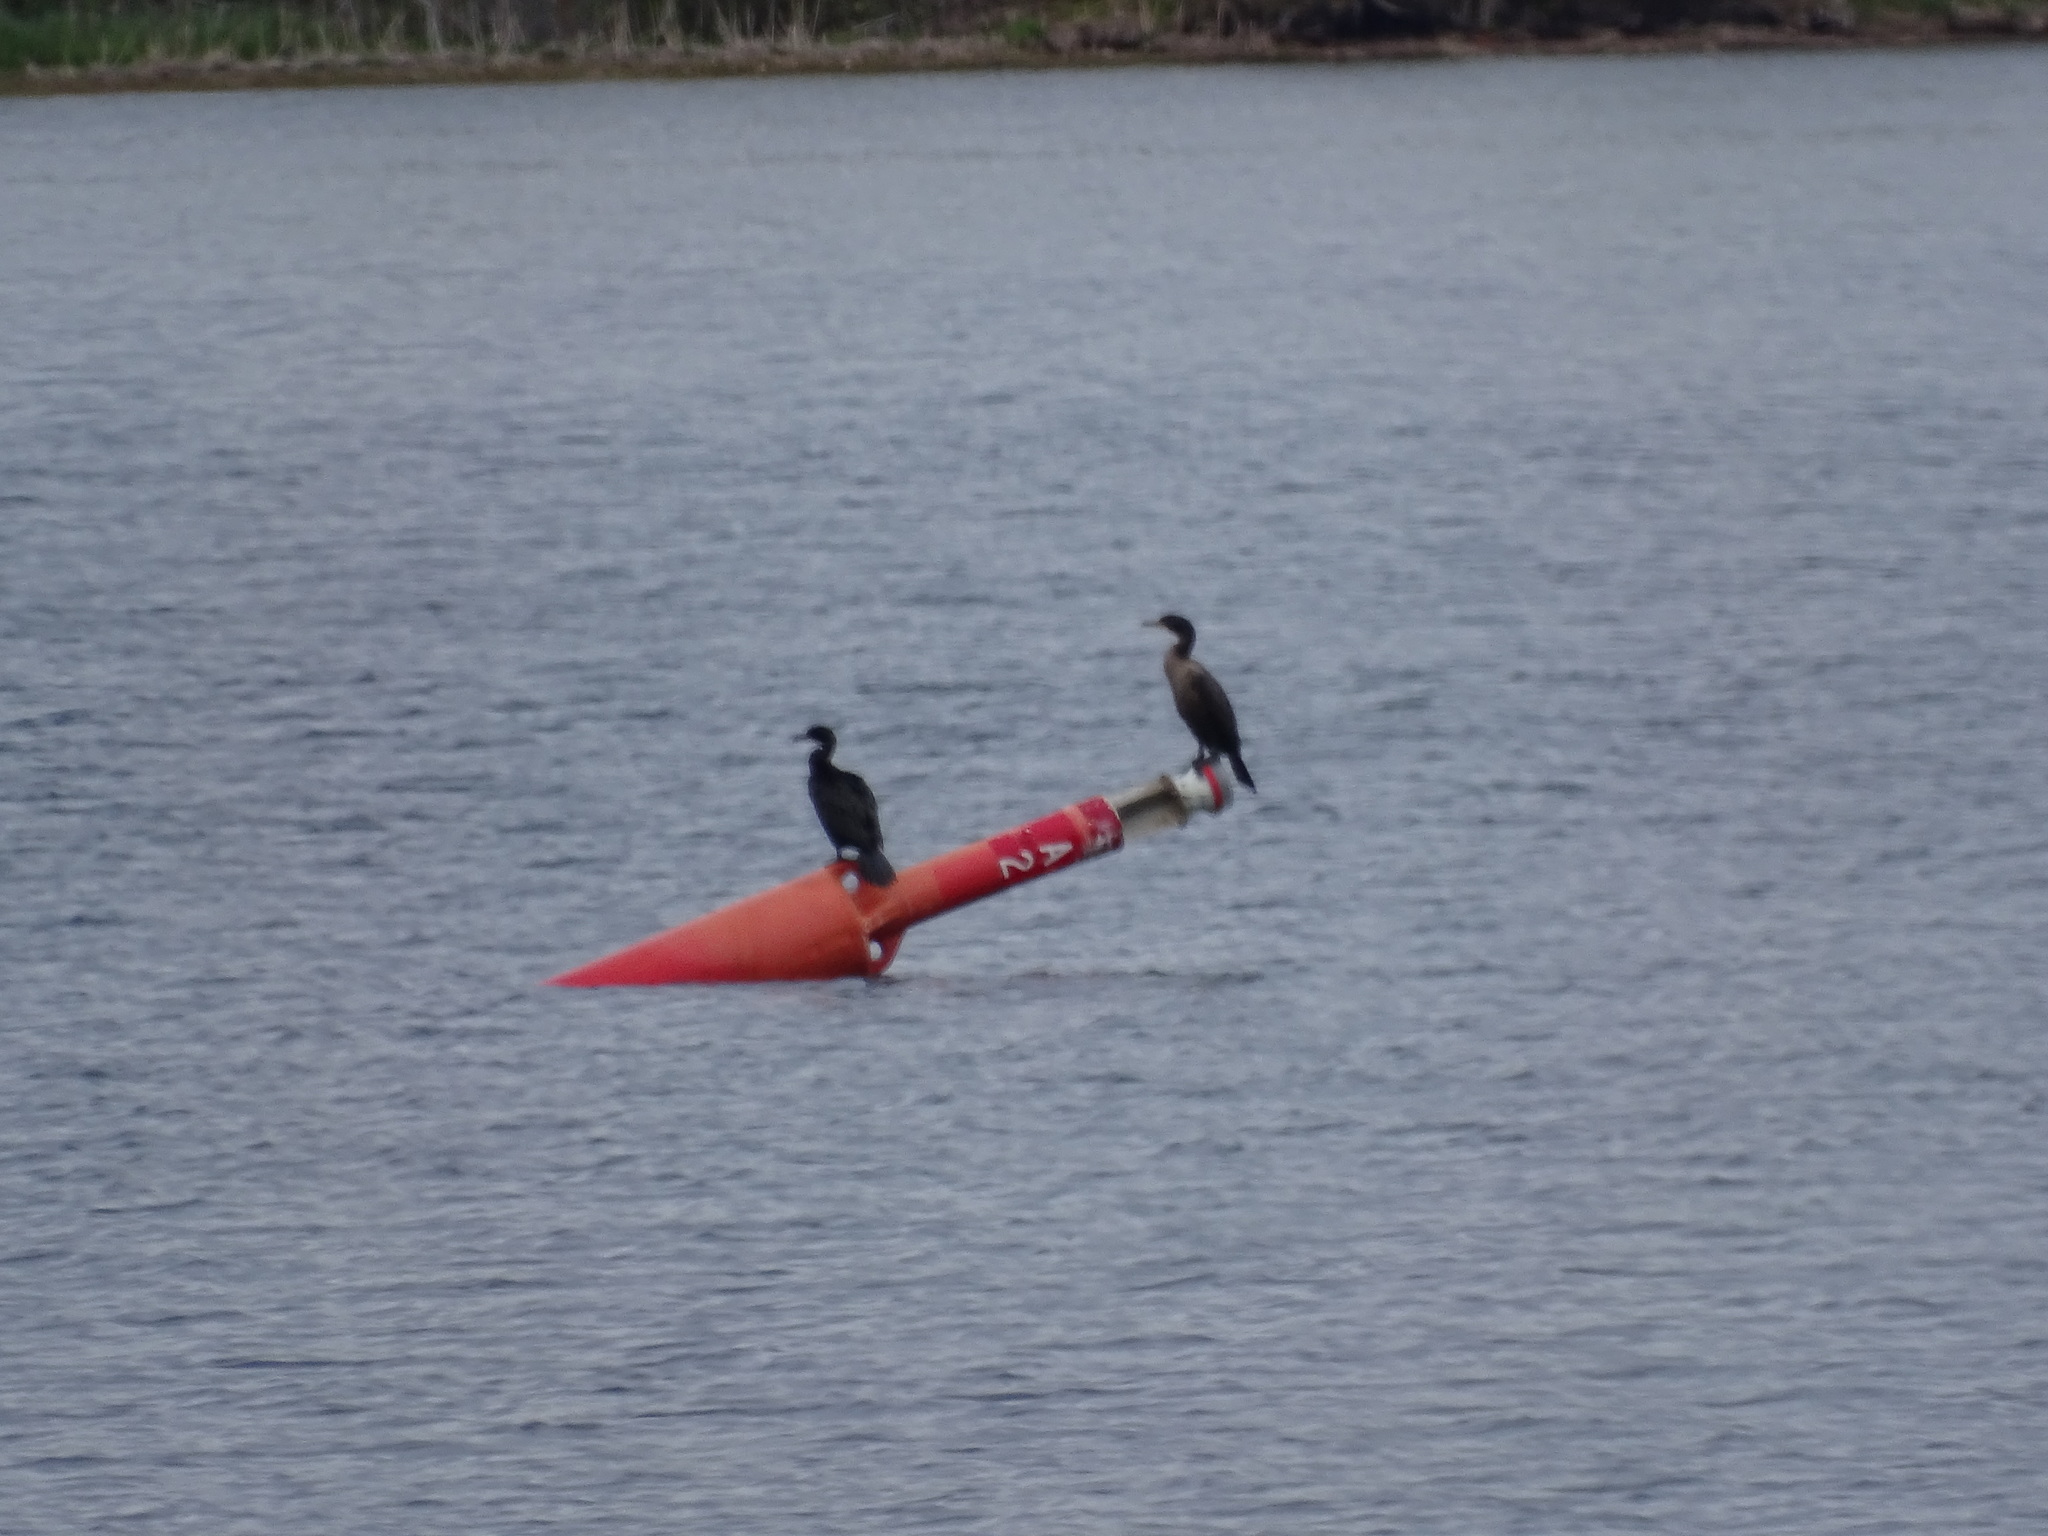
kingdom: Animalia
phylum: Chordata
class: Aves
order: Suliformes
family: Phalacrocoracidae
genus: Phalacrocorax
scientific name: Phalacrocorax auritus
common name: Double-crested cormorant
